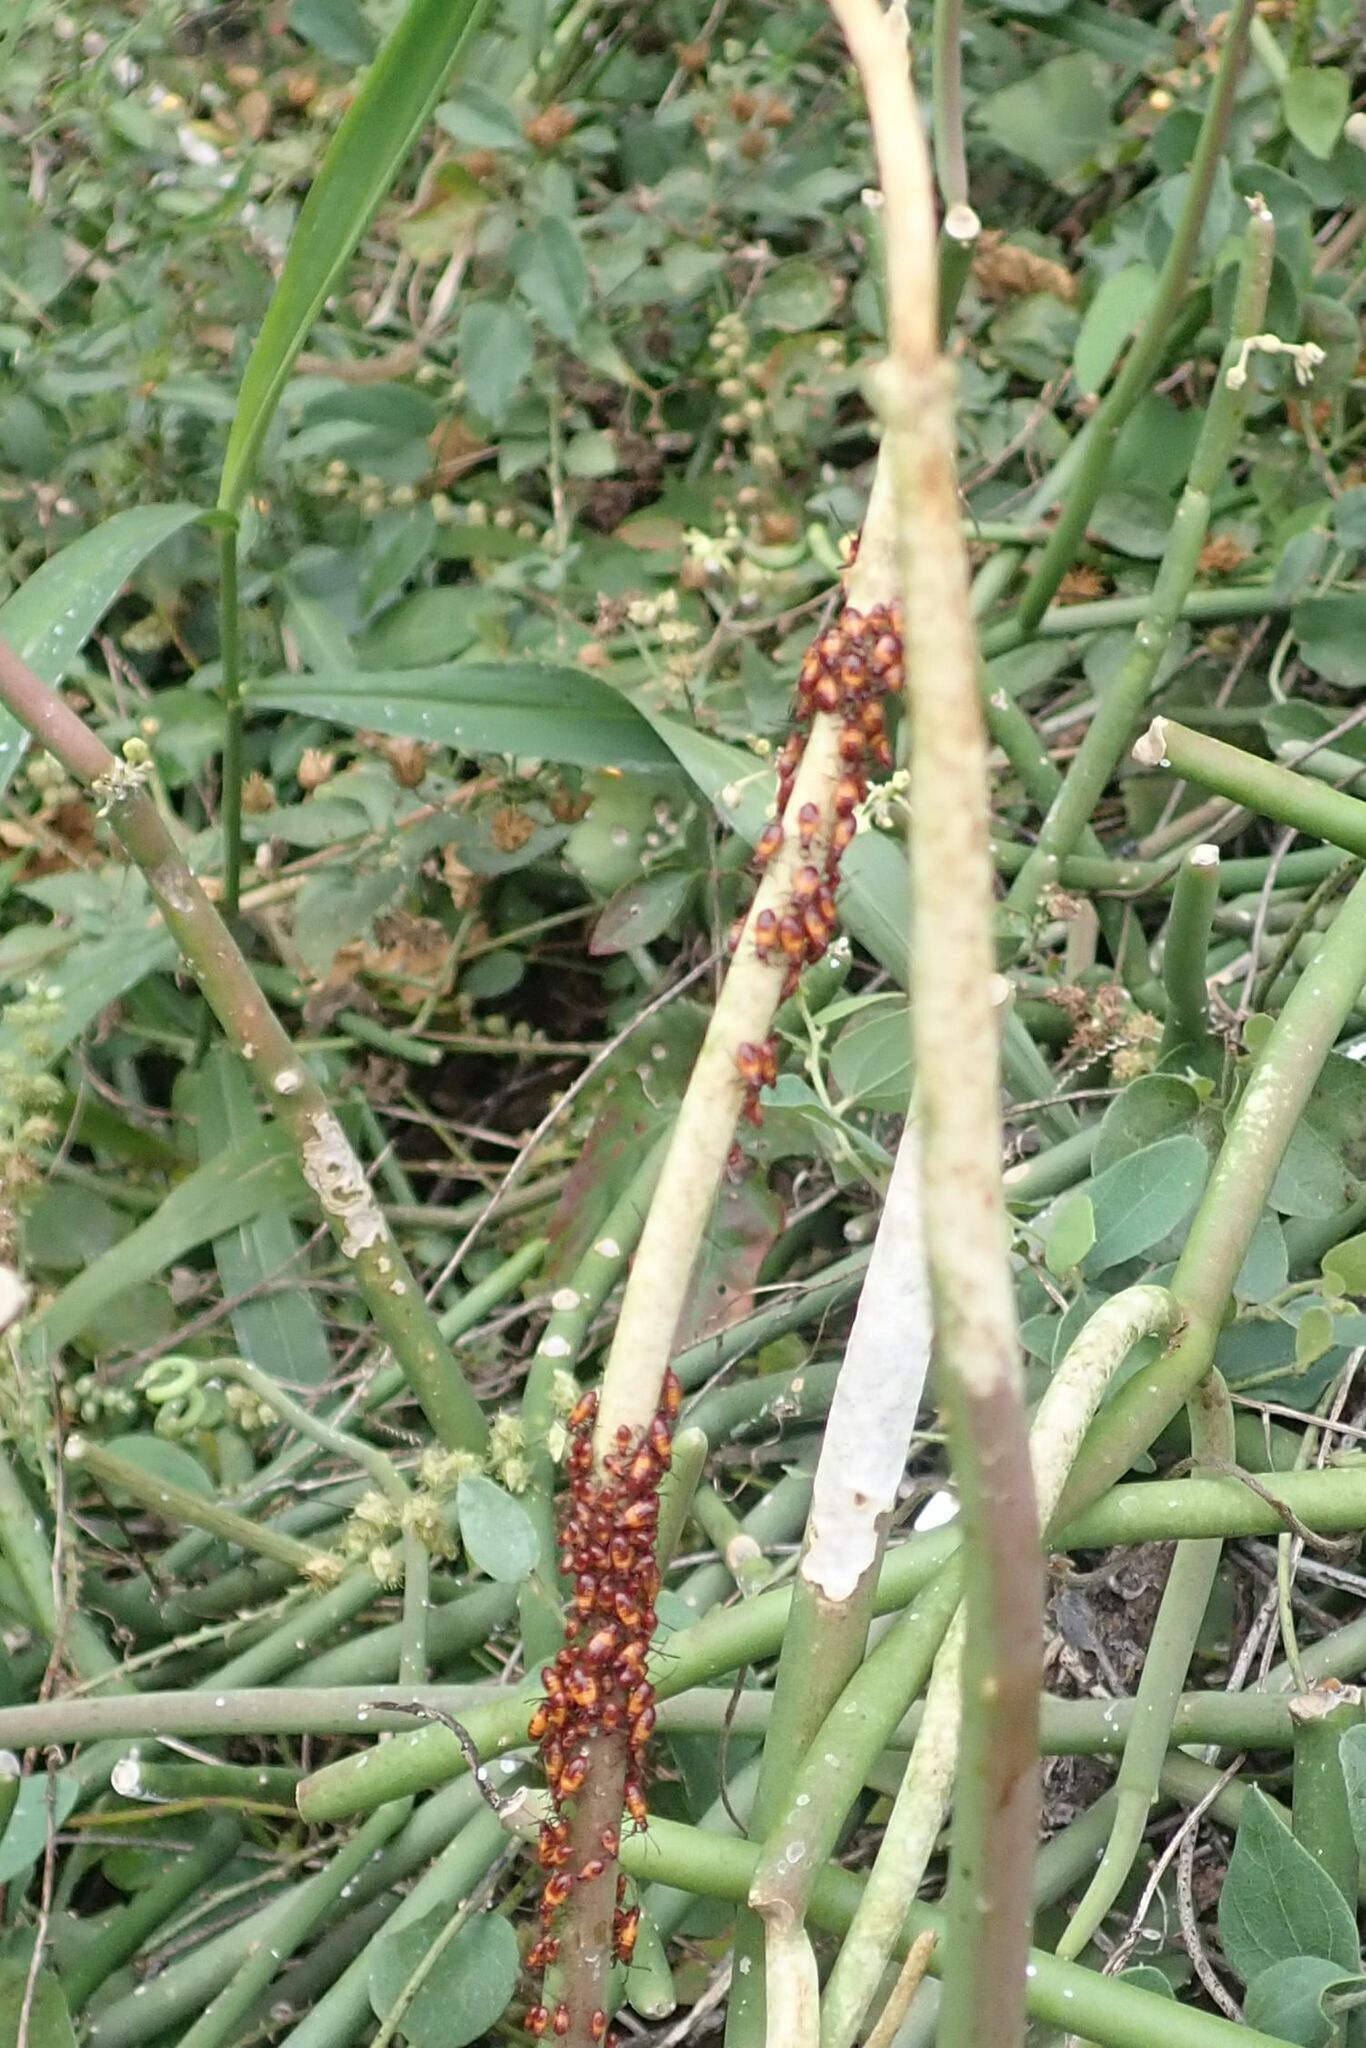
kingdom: Animalia
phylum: Arthropoda
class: Insecta
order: Hemiptera
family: Lygaeidae
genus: Oncopeltus
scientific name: Oncopeltus famelicus
